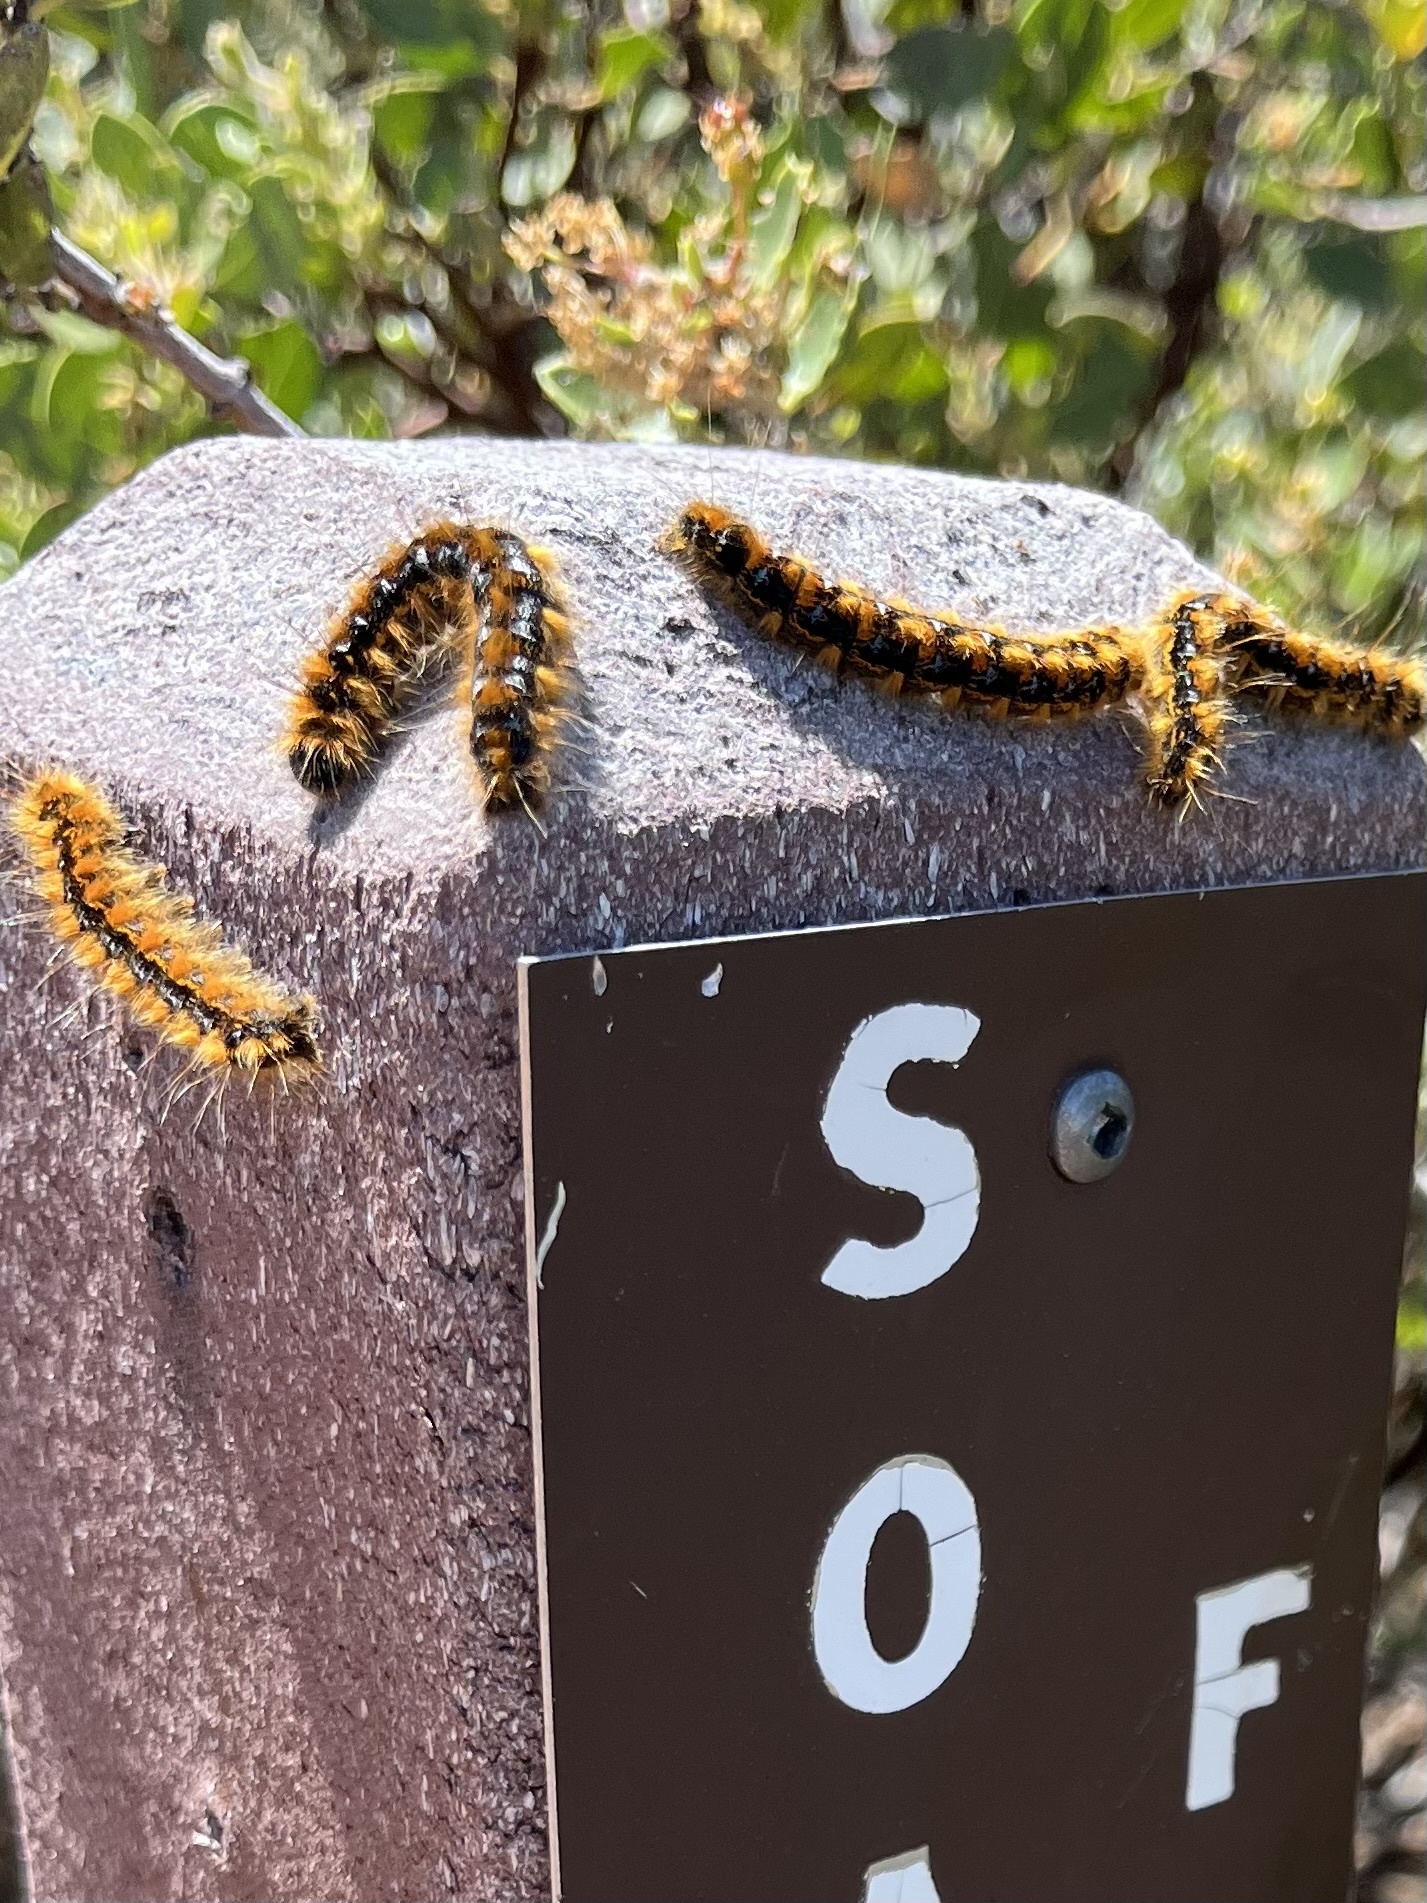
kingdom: Animalia
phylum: Arthropoda
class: Insecta
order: Lepidoptera
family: Lasiocampidae
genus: Malacosoma
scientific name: Malacosoma constricta
